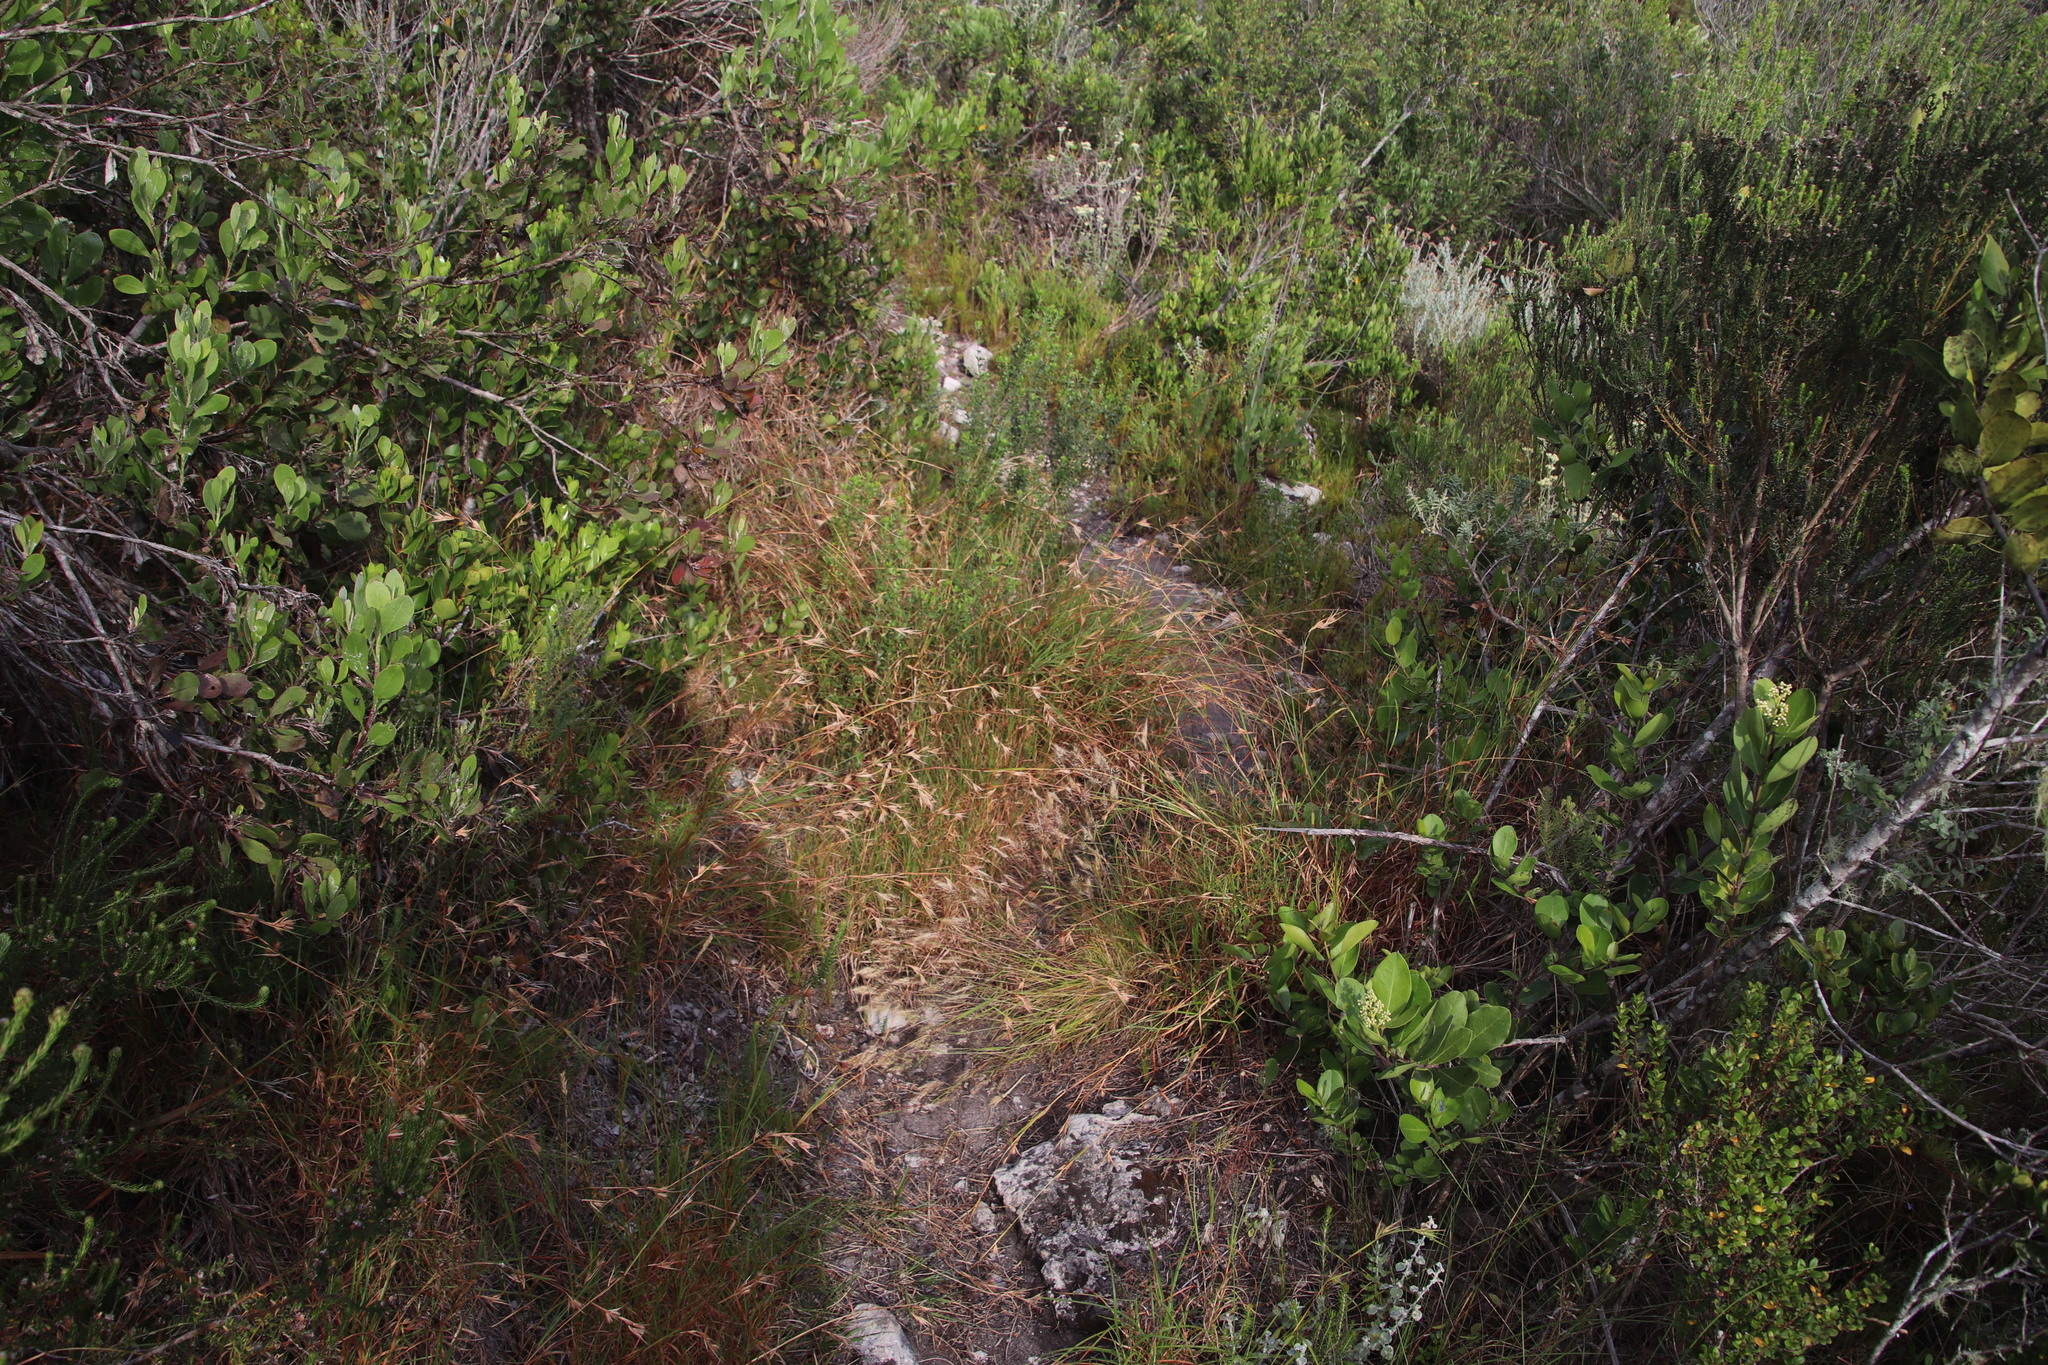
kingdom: Plantae
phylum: Tracheophyta
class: Liliopsida
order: Poales
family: Poaceae
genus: Themeda
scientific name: Themeda triandra
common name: Kangaroo grass
